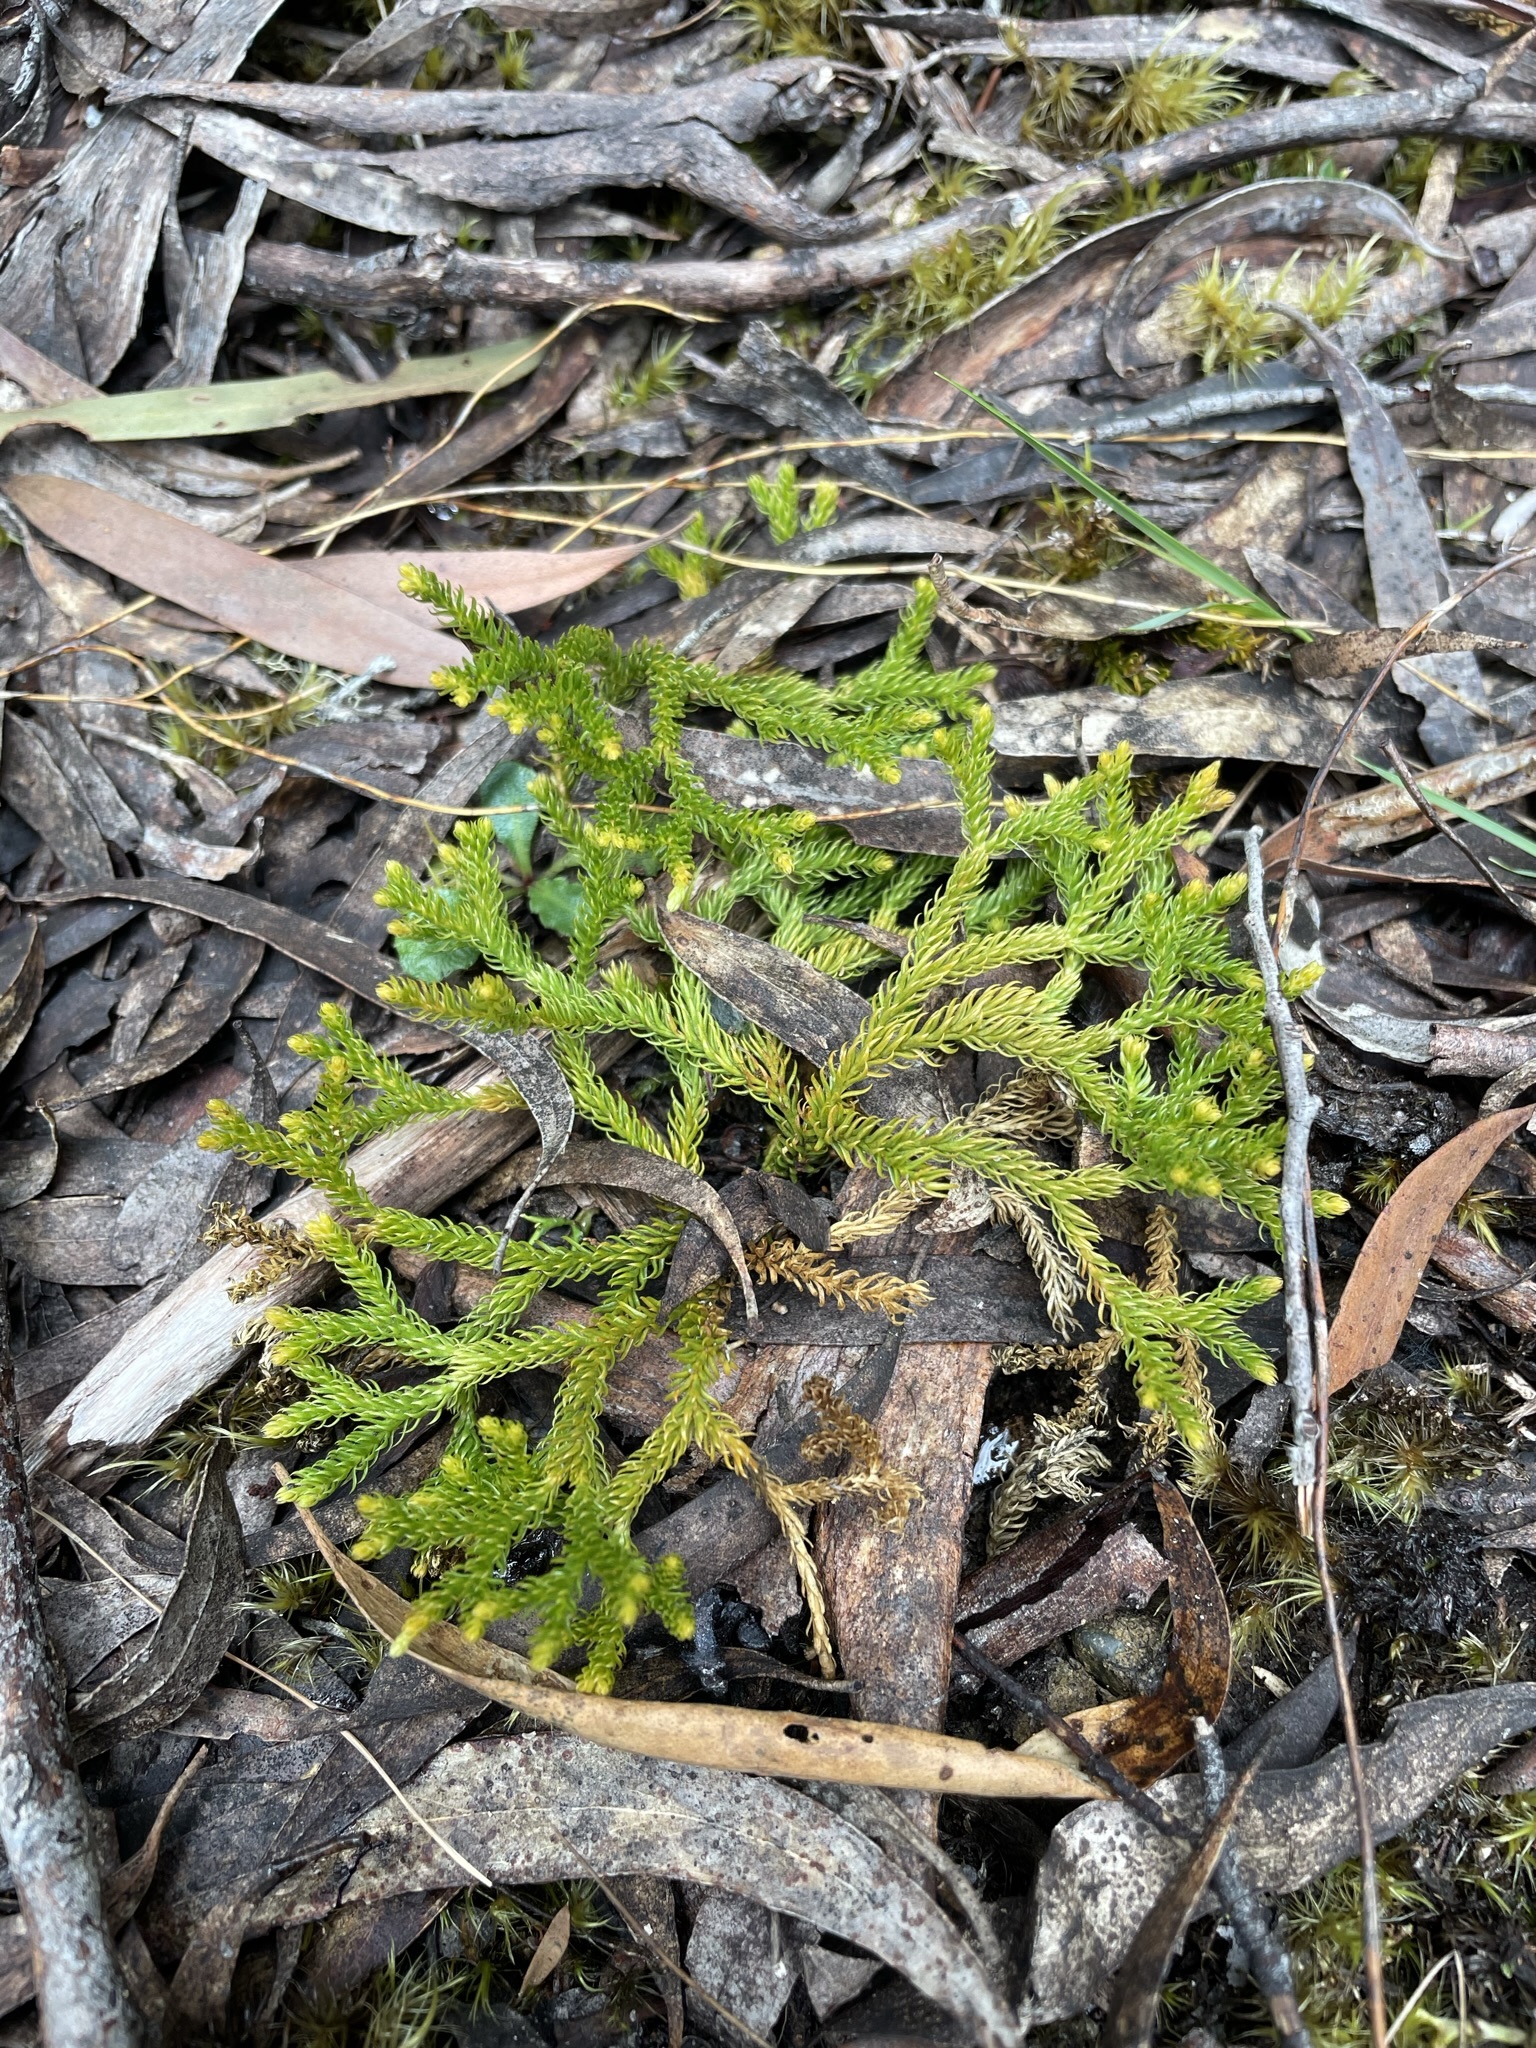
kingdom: Plantae
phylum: Tracheophyta
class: Lycopodiopsida
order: Lycopodiales
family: Lycopodiaceae
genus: Austrolycopodium
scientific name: Austrolycopodium fastigiatum
